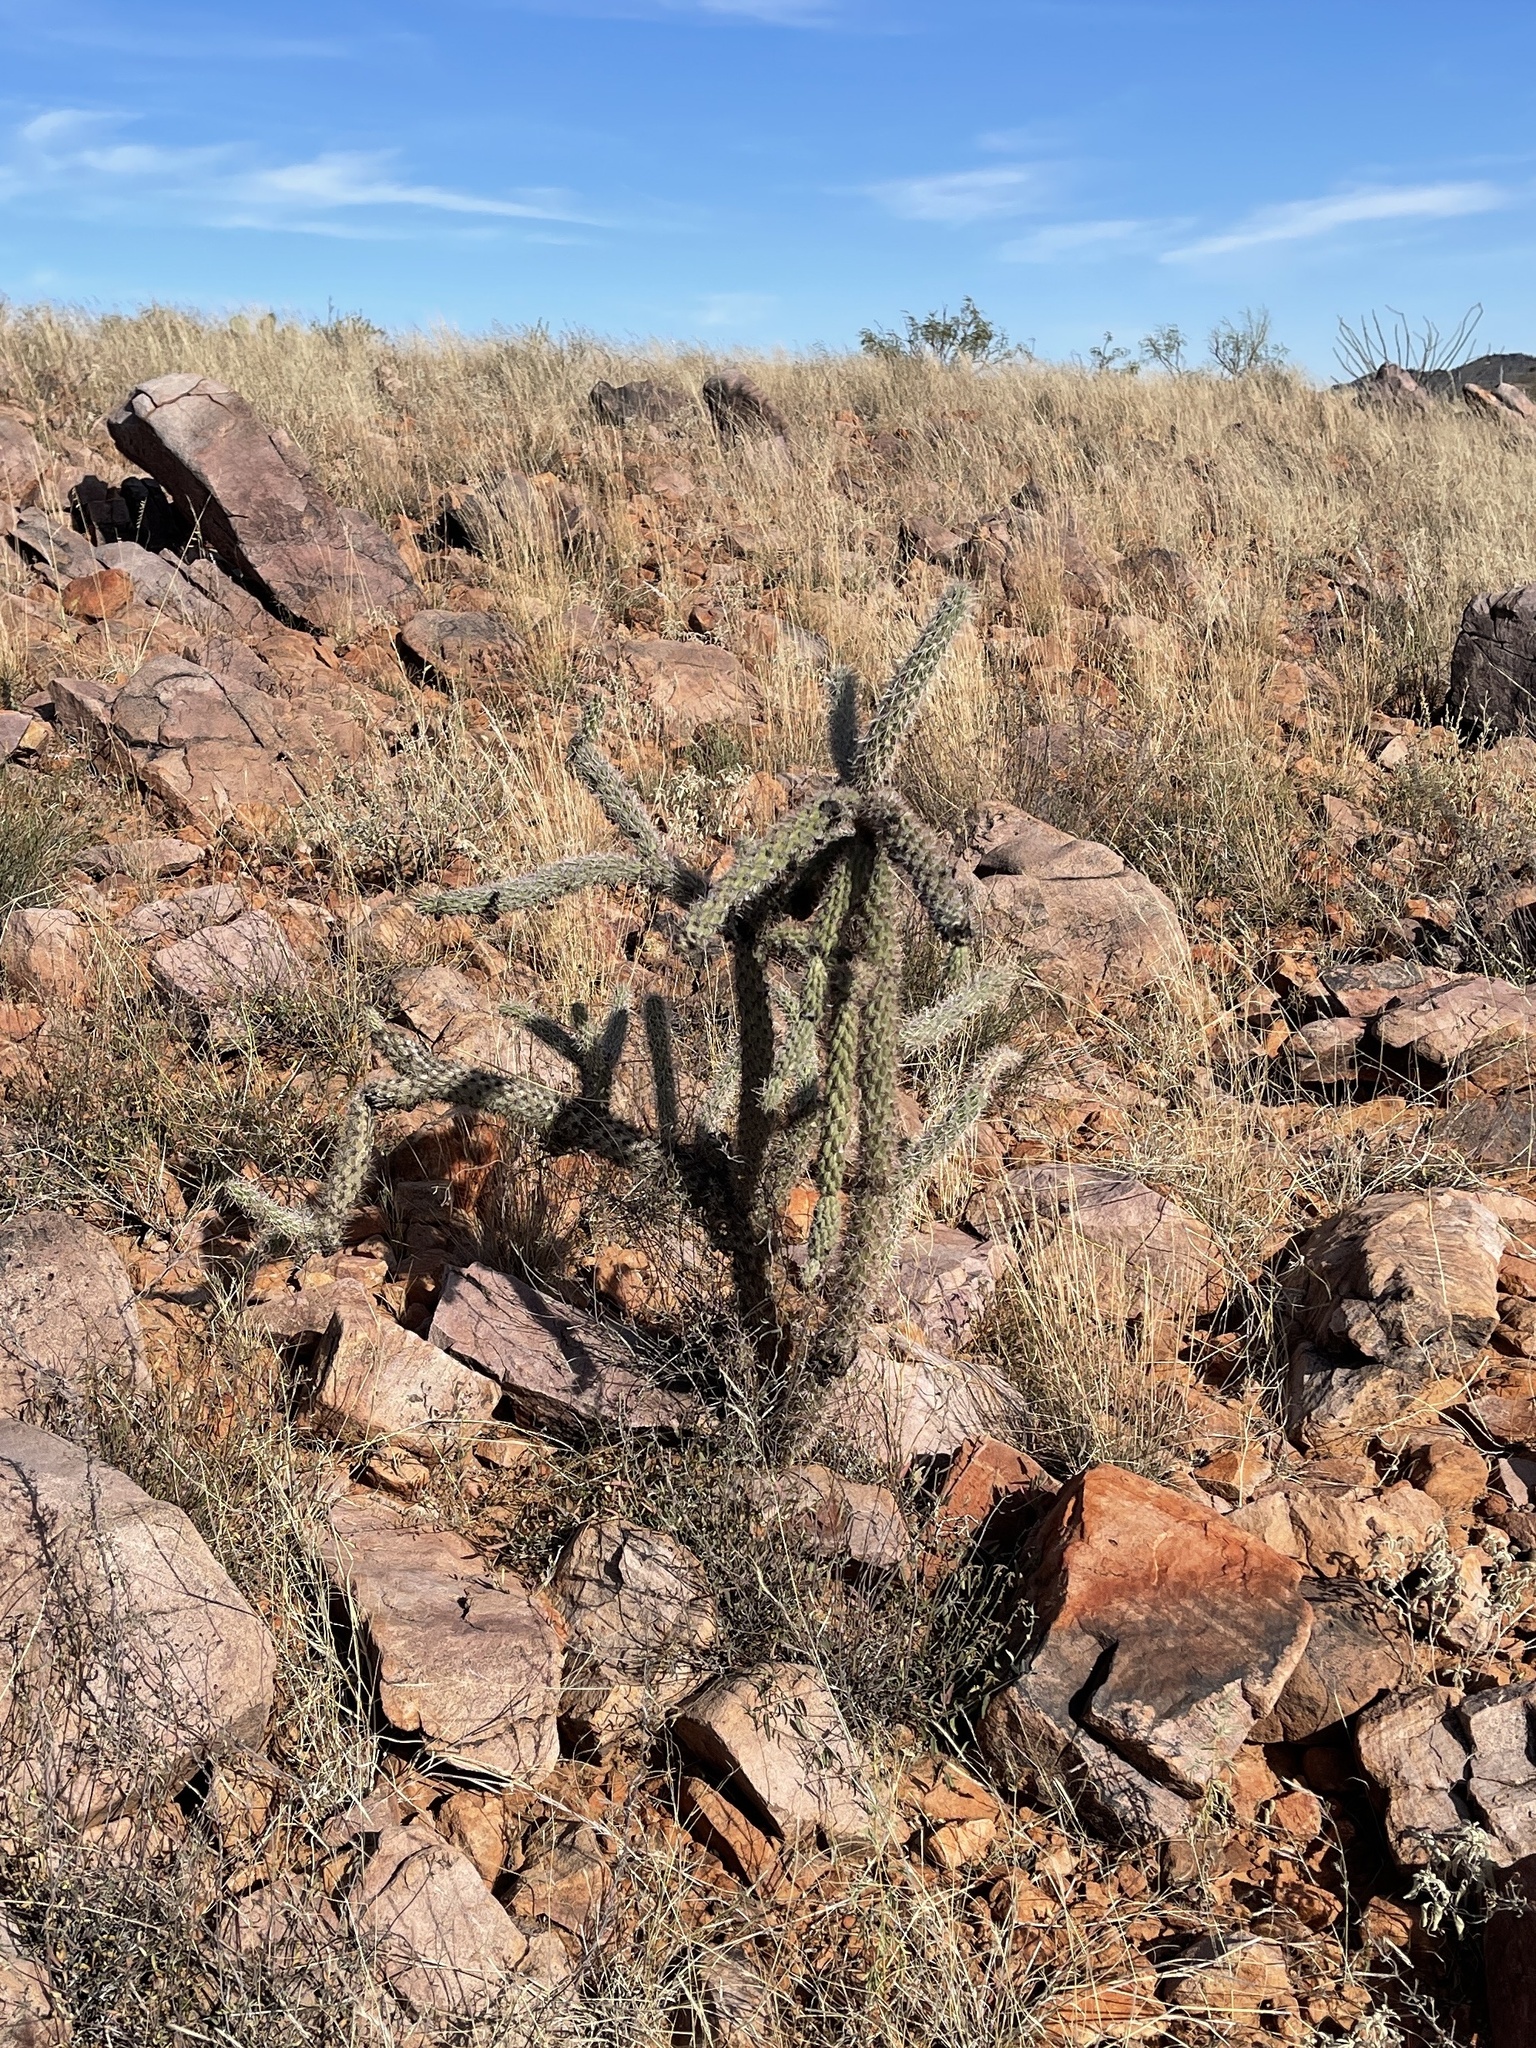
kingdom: Plantae
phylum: Tracheophyta
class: Magnoliopsida
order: Caryophyllales
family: Cactaceae
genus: Cylindropuntia
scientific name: Cylindropuntia imbricata
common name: Candelabrum cactus
